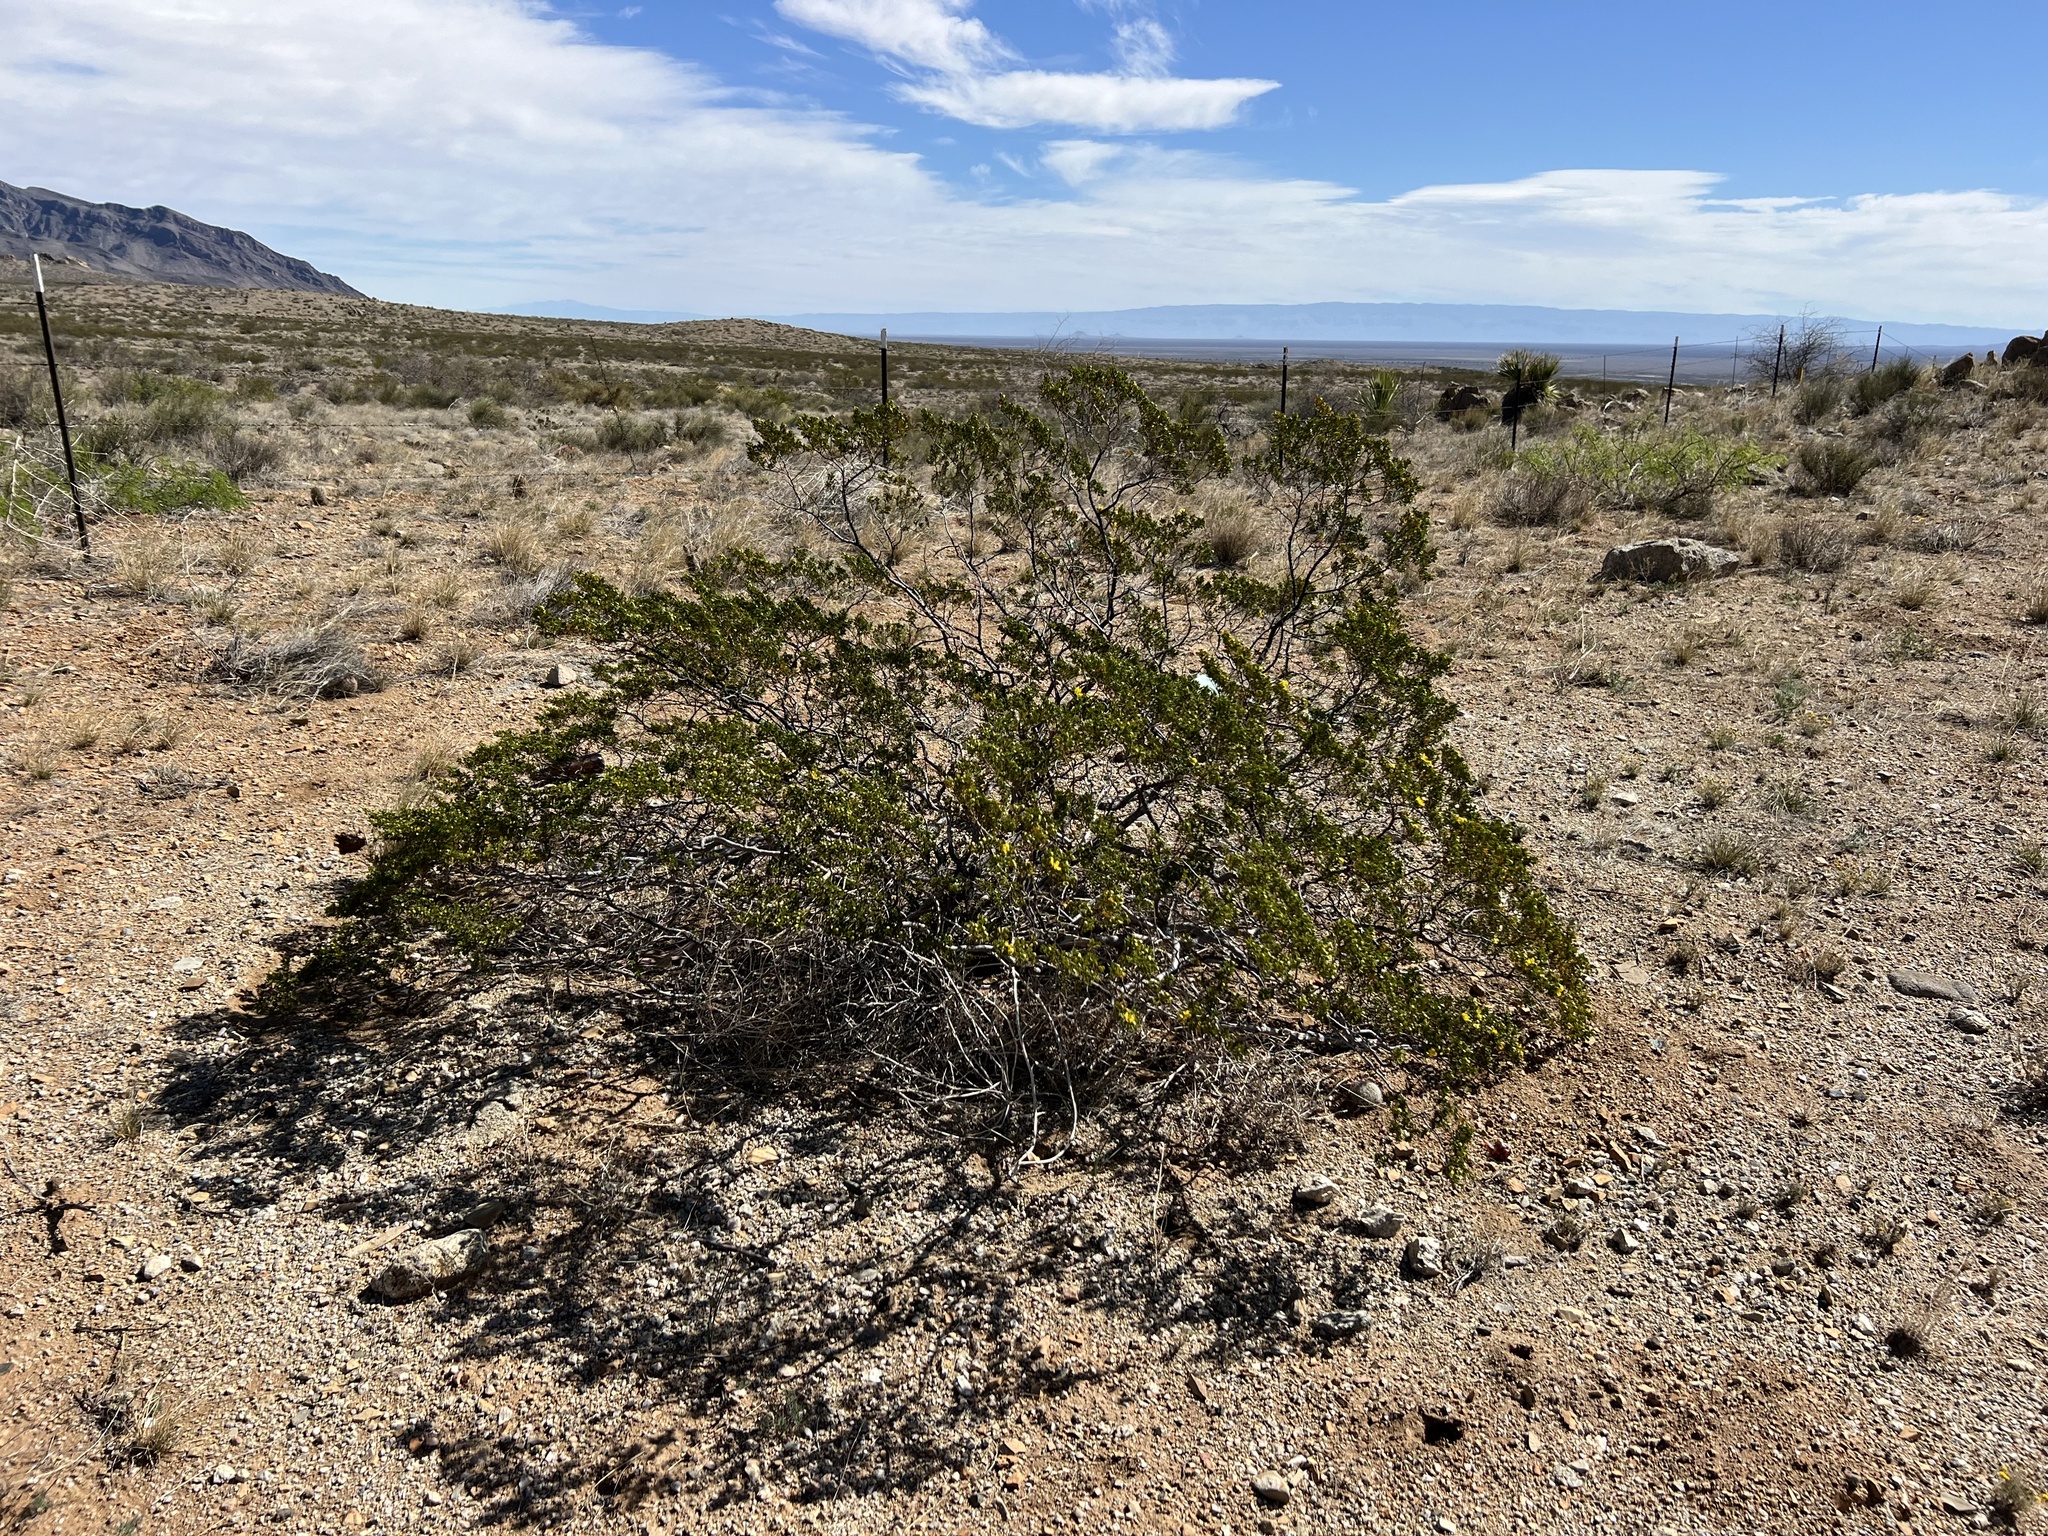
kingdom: Plantae
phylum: Tracheophyta
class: Magnoliopsida
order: Zygophyllales
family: Zygophyllaceae
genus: Larrea
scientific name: Larrea tridentata
